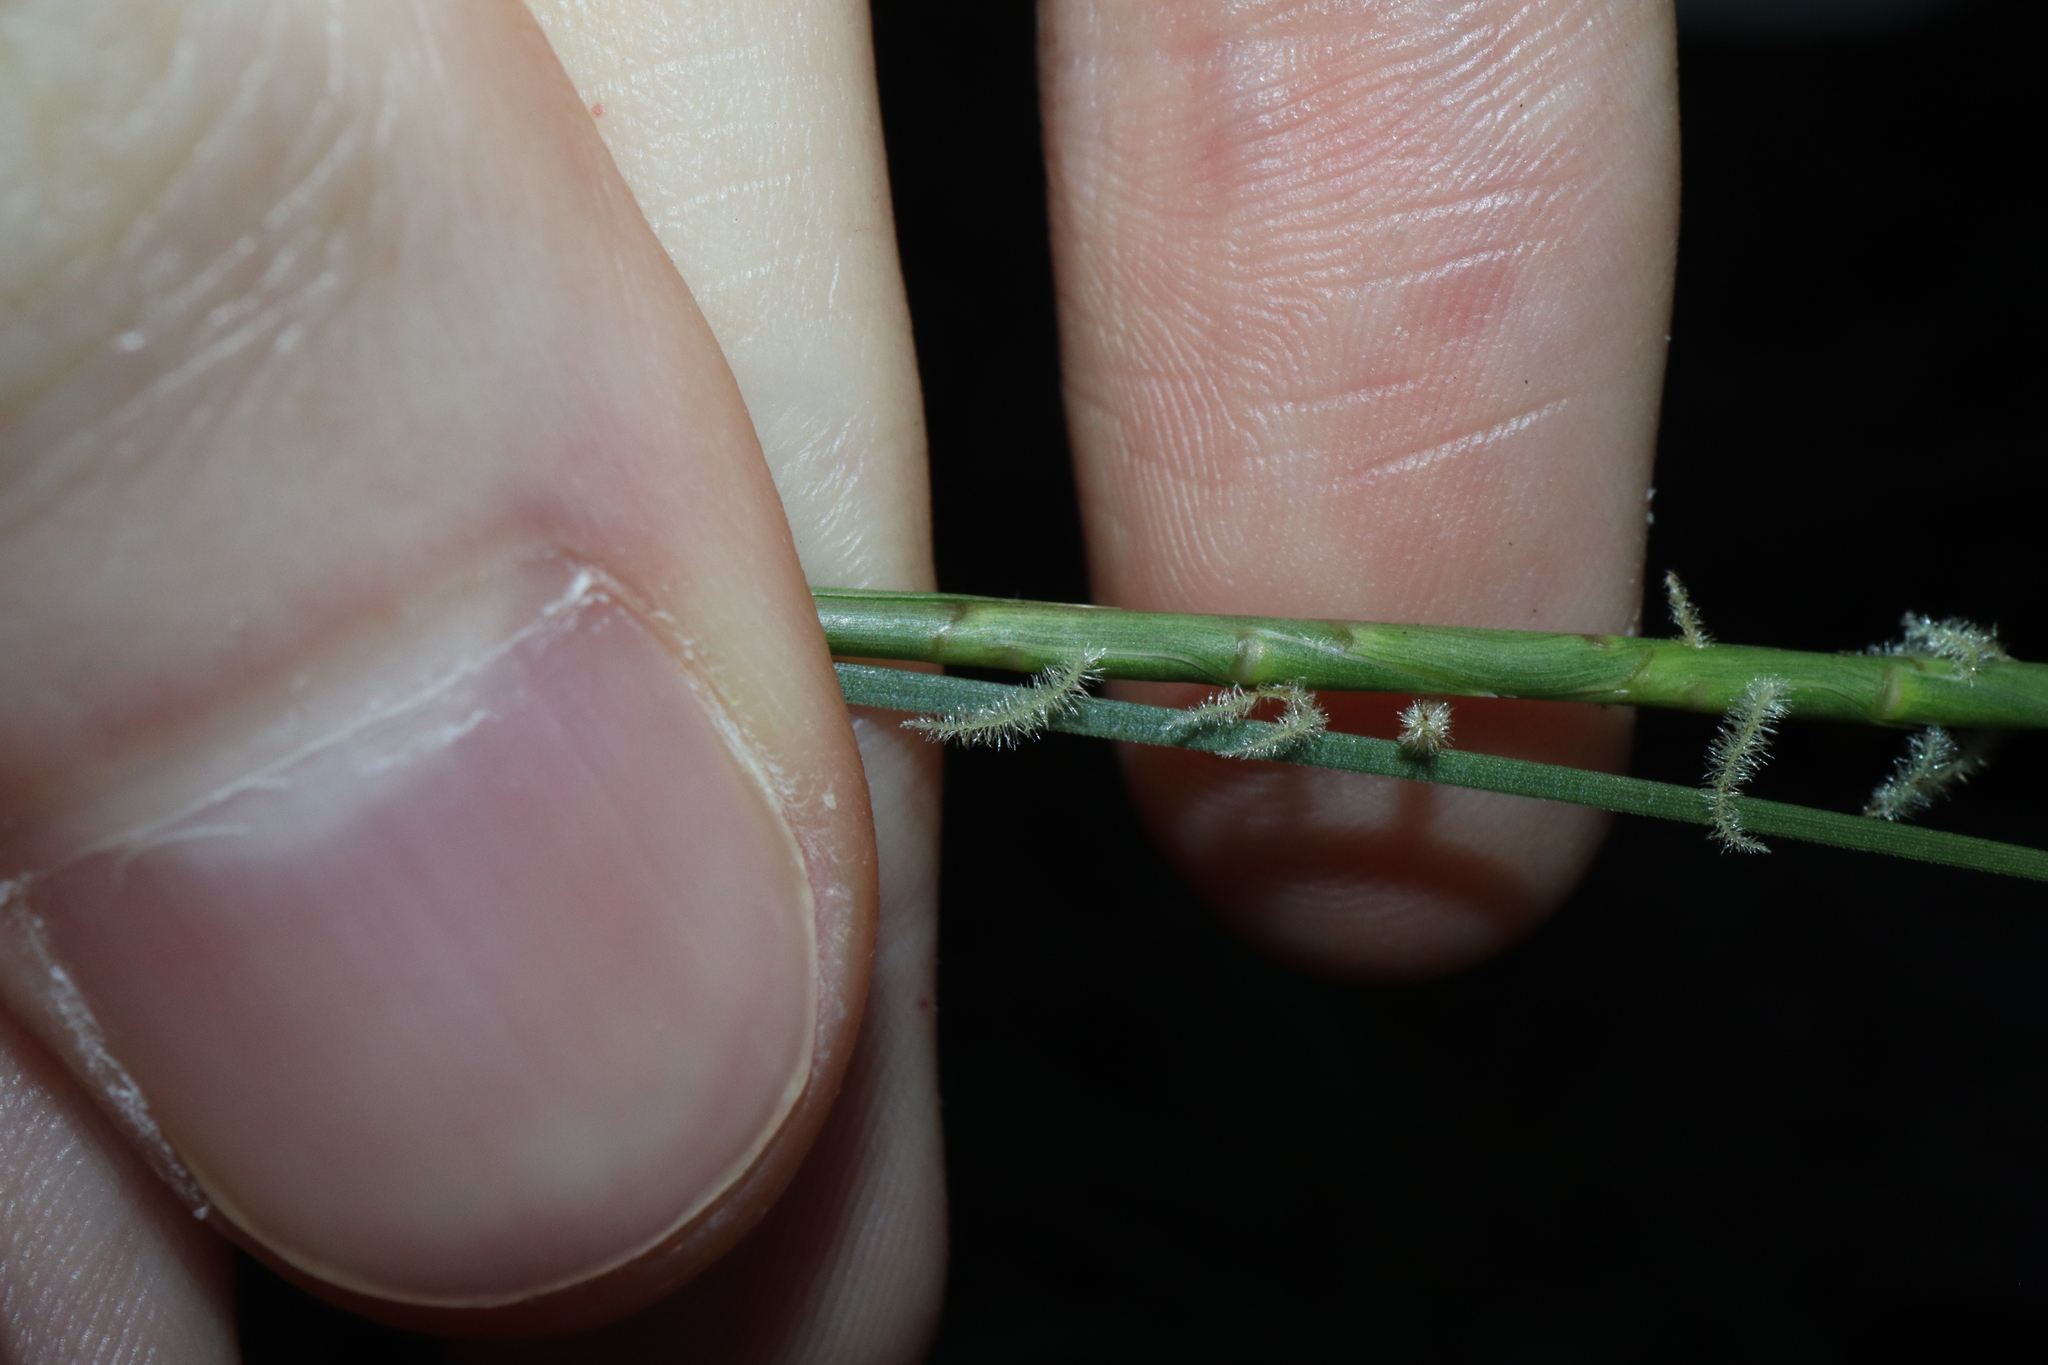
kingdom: Plantae
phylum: Tracheophyta
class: Liliopsida
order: Poales
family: Poaceae
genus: Hemarthria
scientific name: Hemarthria uncinata
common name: Matgrass
